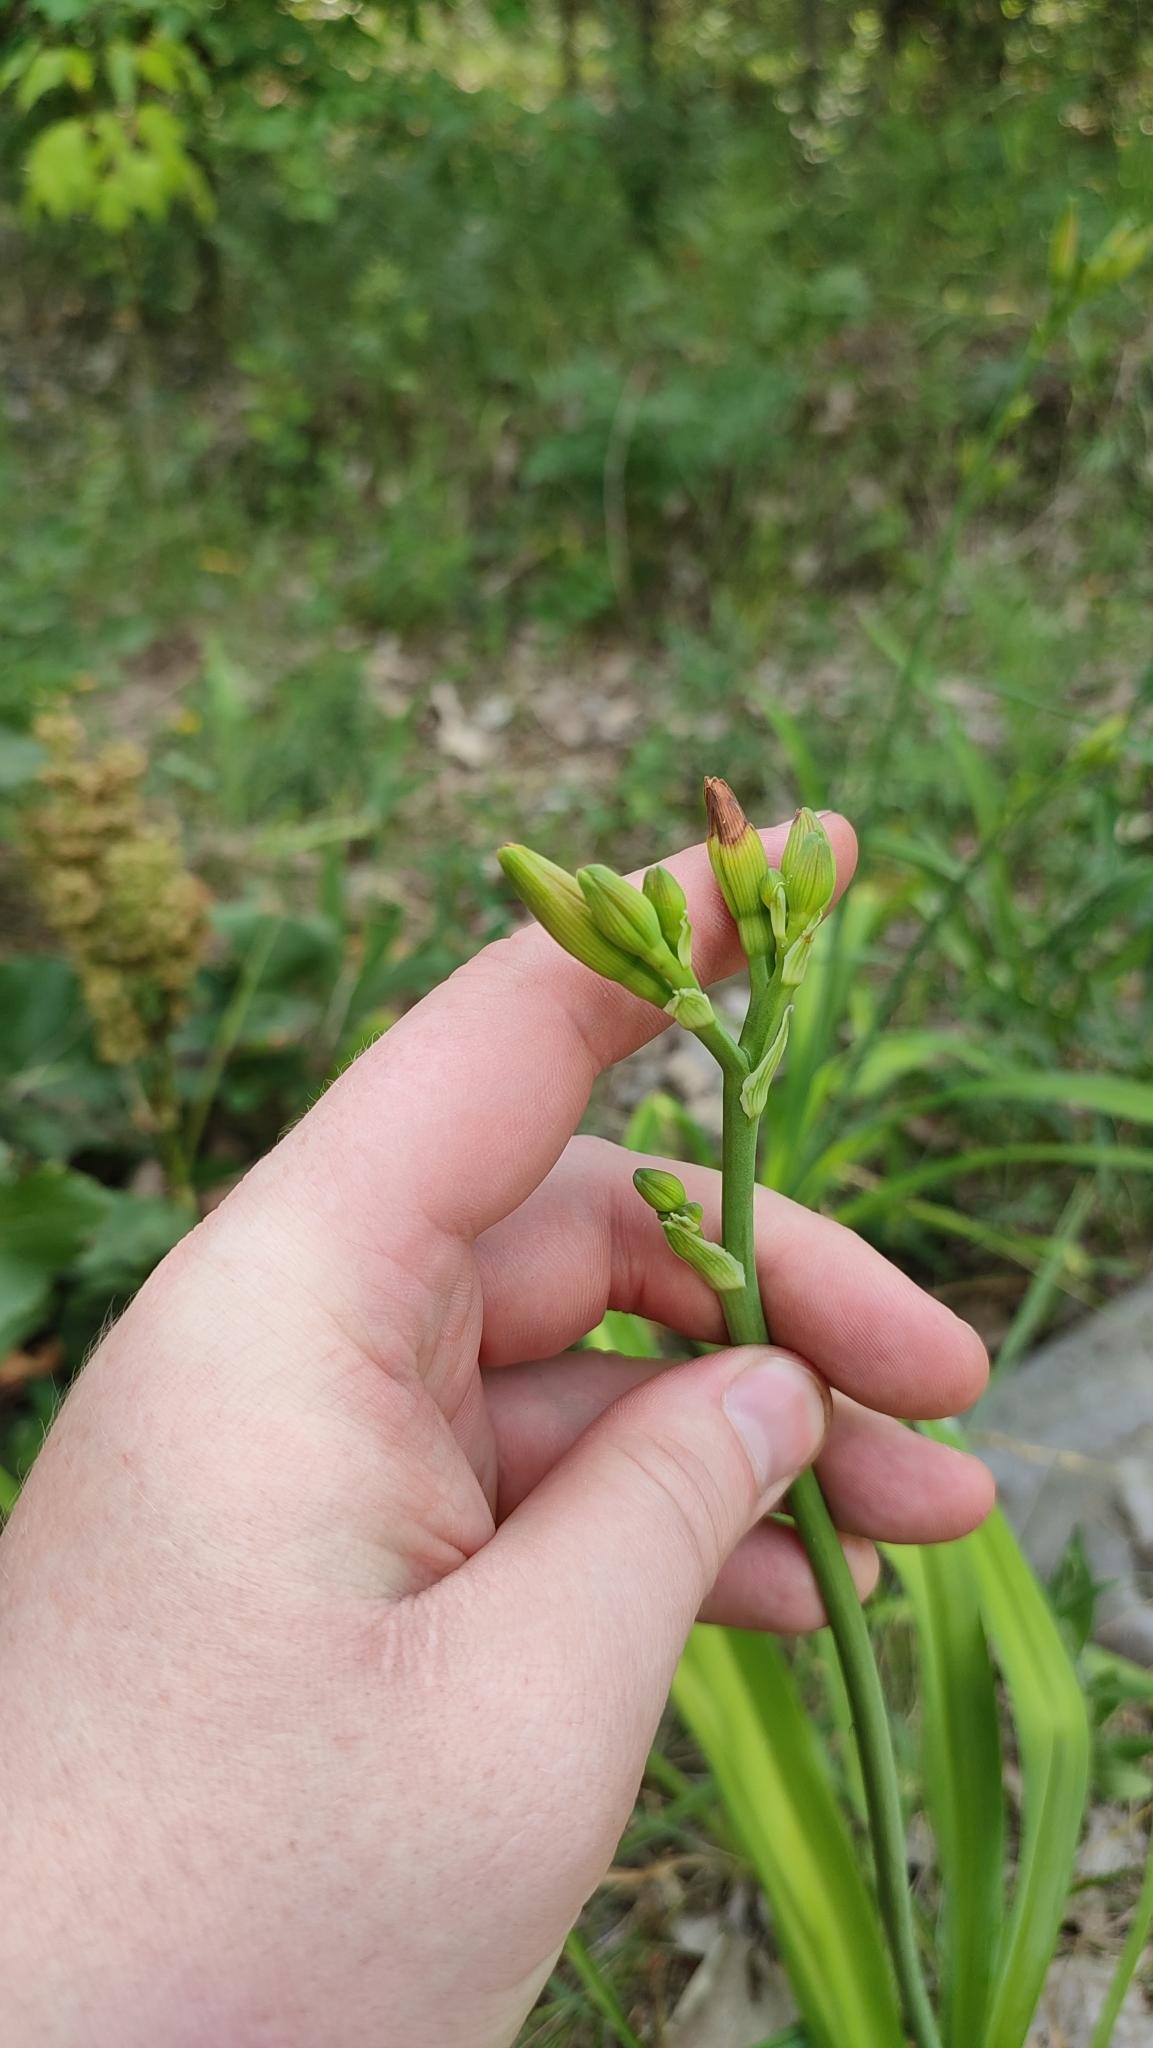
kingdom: Plantae
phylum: Tracheophyta
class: Liliopsida
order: Asparagales
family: Asphodelaceae
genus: Hemerocallis
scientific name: Hemerocallis fulva
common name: Orange day-lily
